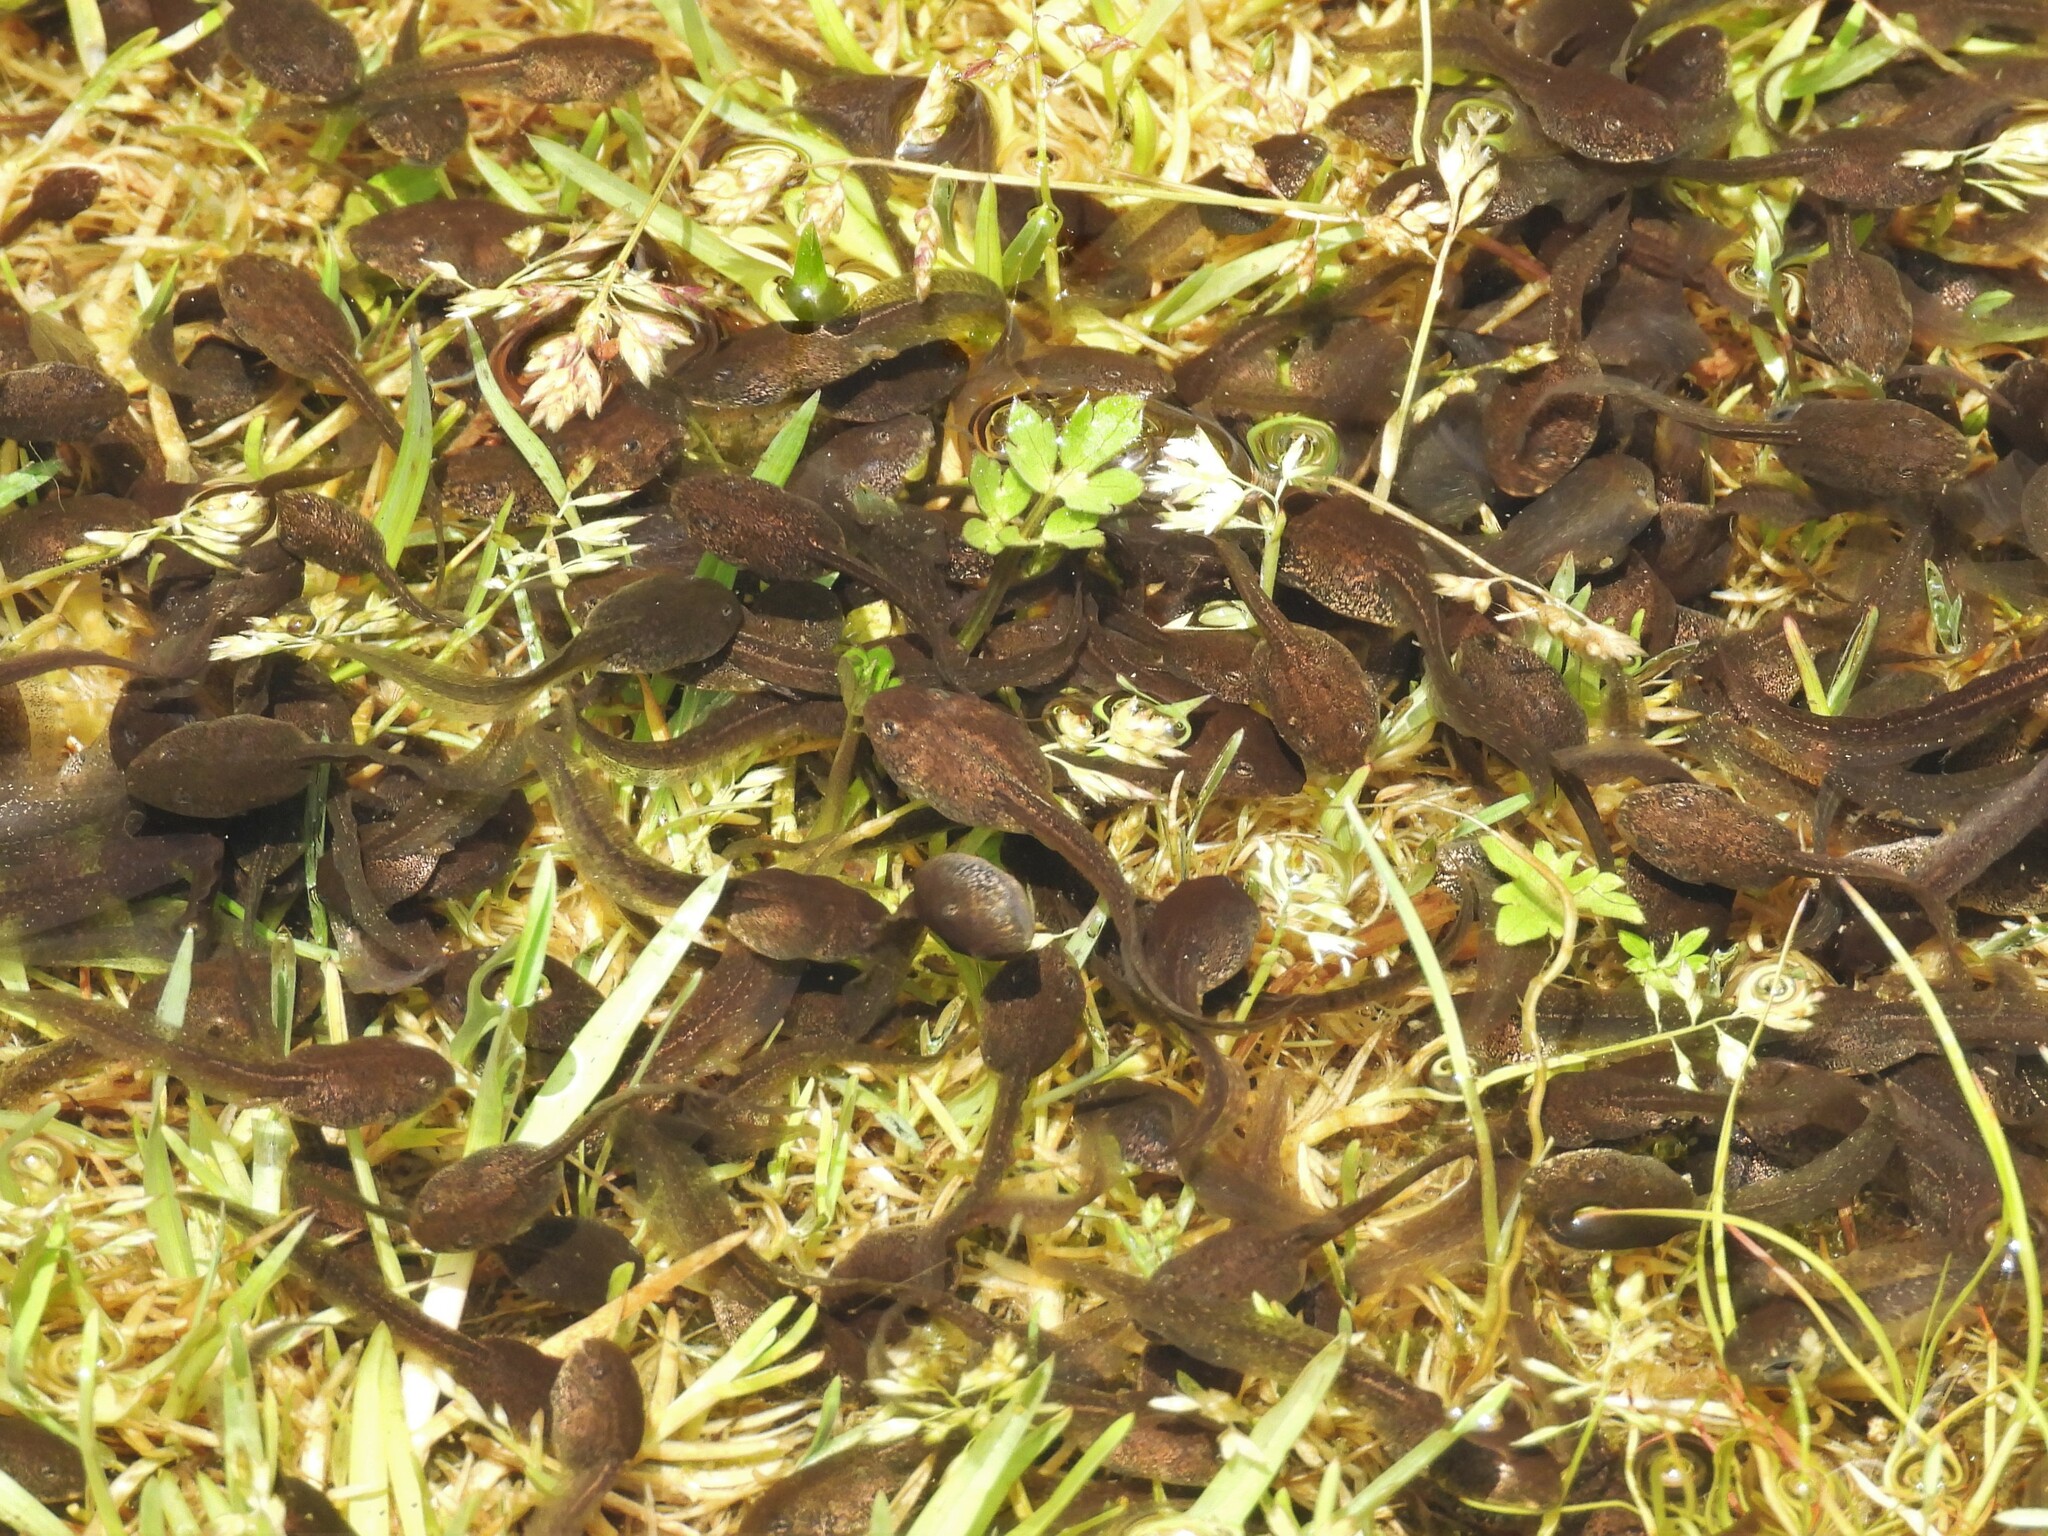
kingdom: Animalia
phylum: Chordata
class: Amphibia
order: Anura
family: Ranidae
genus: Rana
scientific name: Rana temporaria
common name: Common frog
